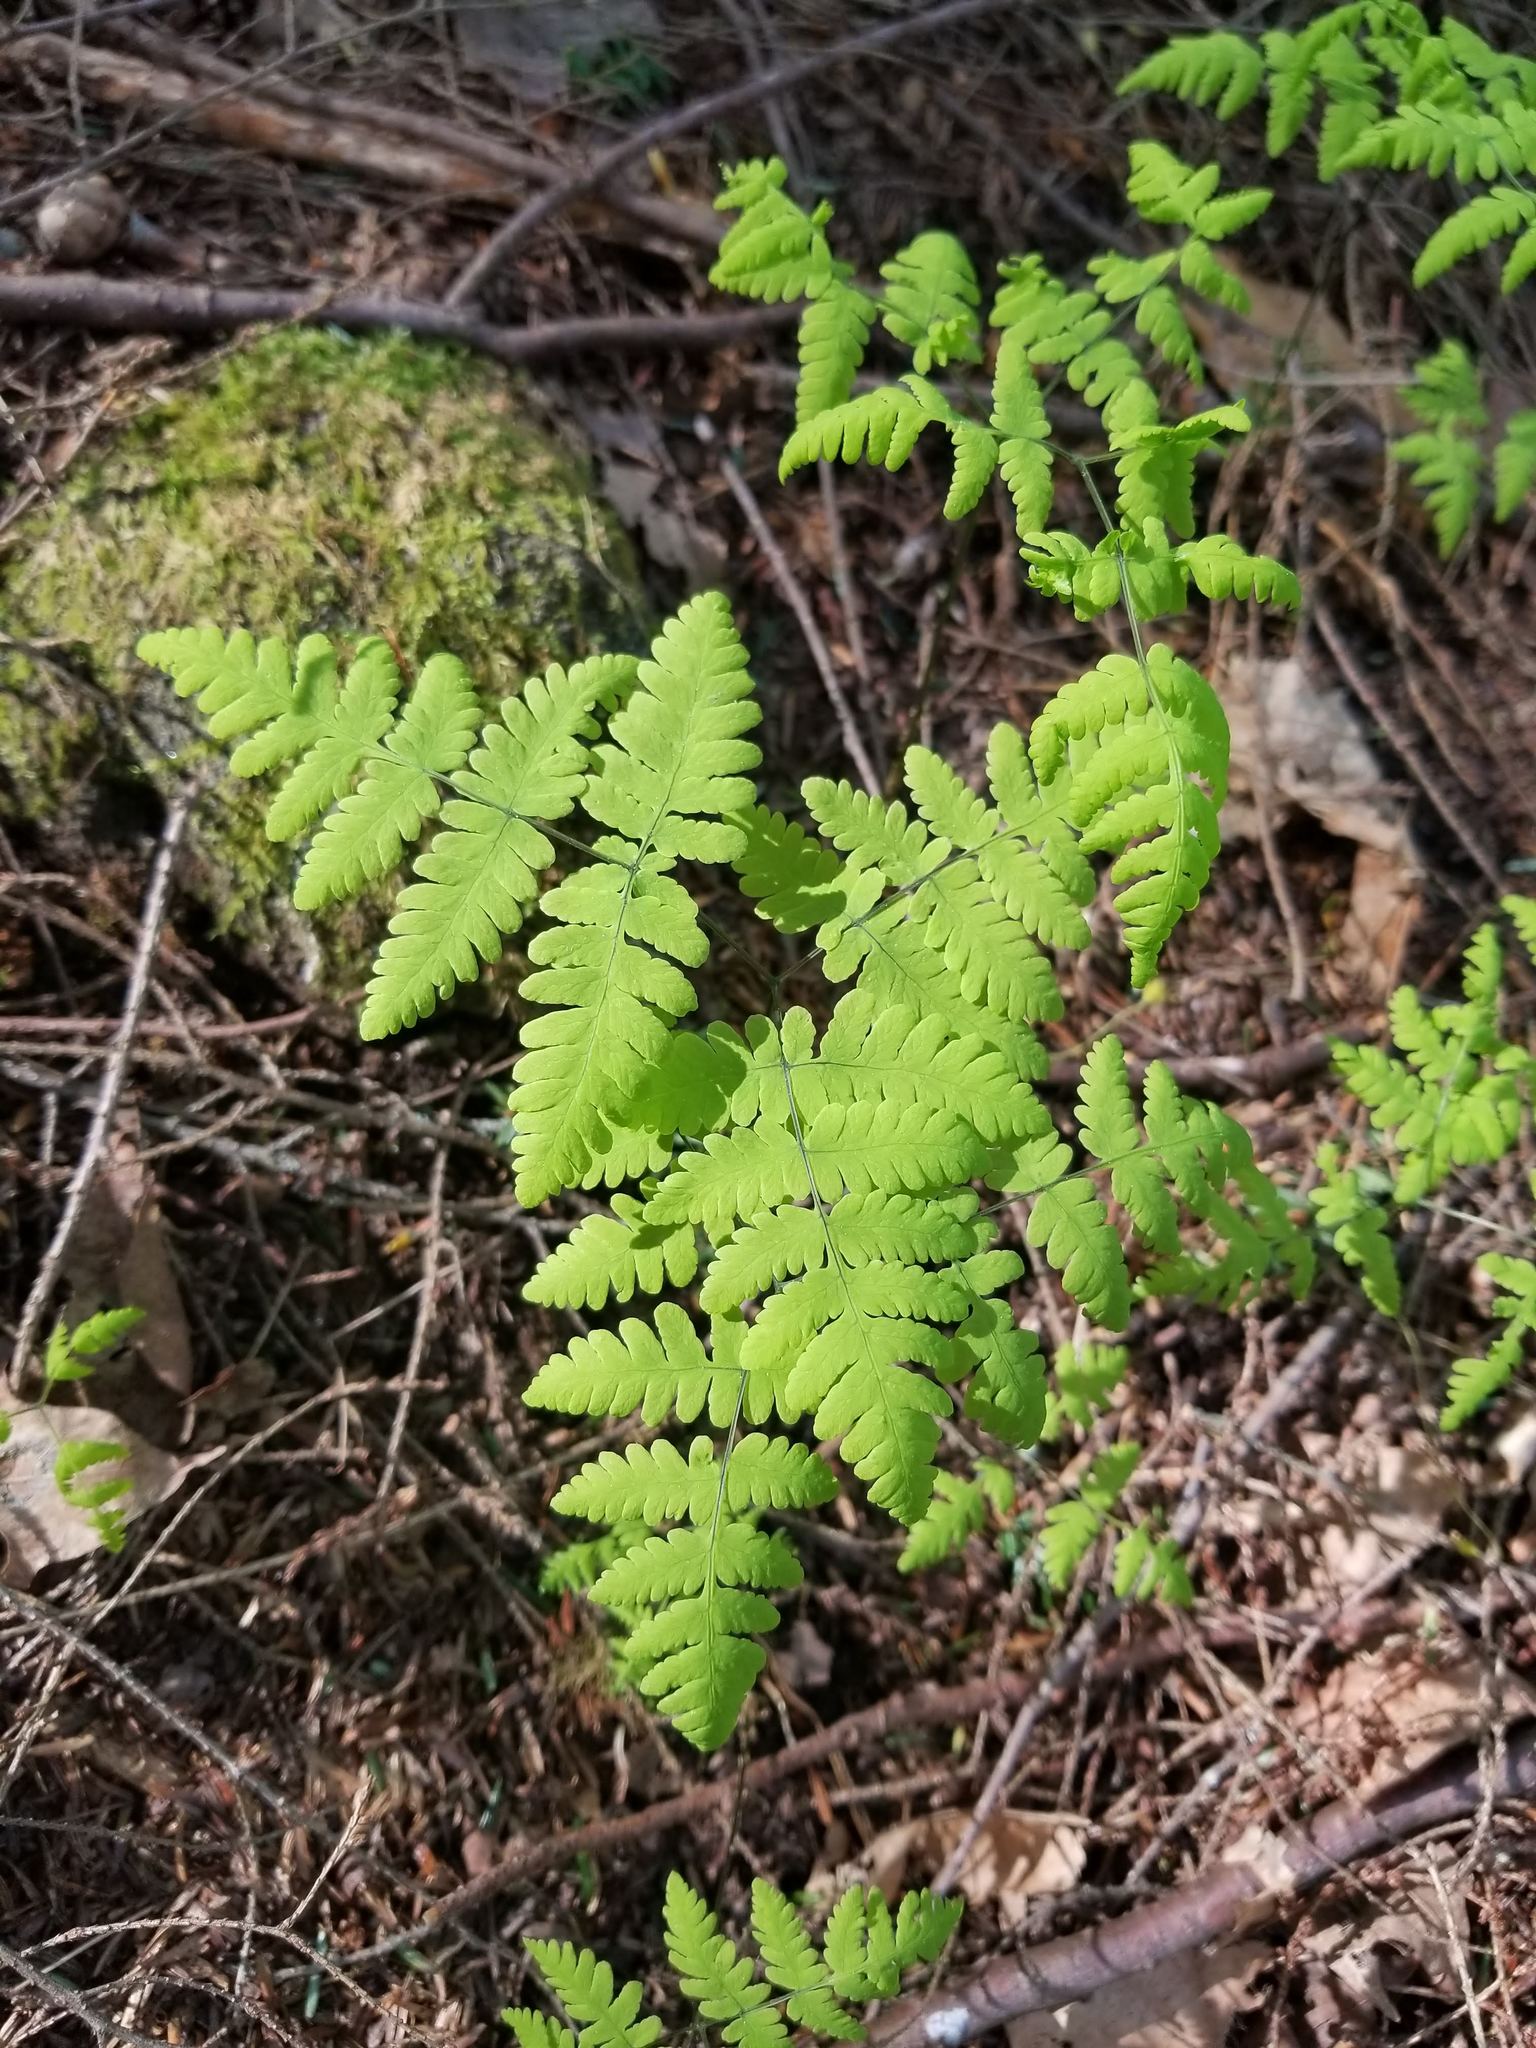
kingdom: Plantae
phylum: Tracheophyta
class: Polypodiopsida
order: Polypodiales
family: Cystopteridaceae
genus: Gymnocarpium
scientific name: Gymnocarpium dryopteris
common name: Oak fern
